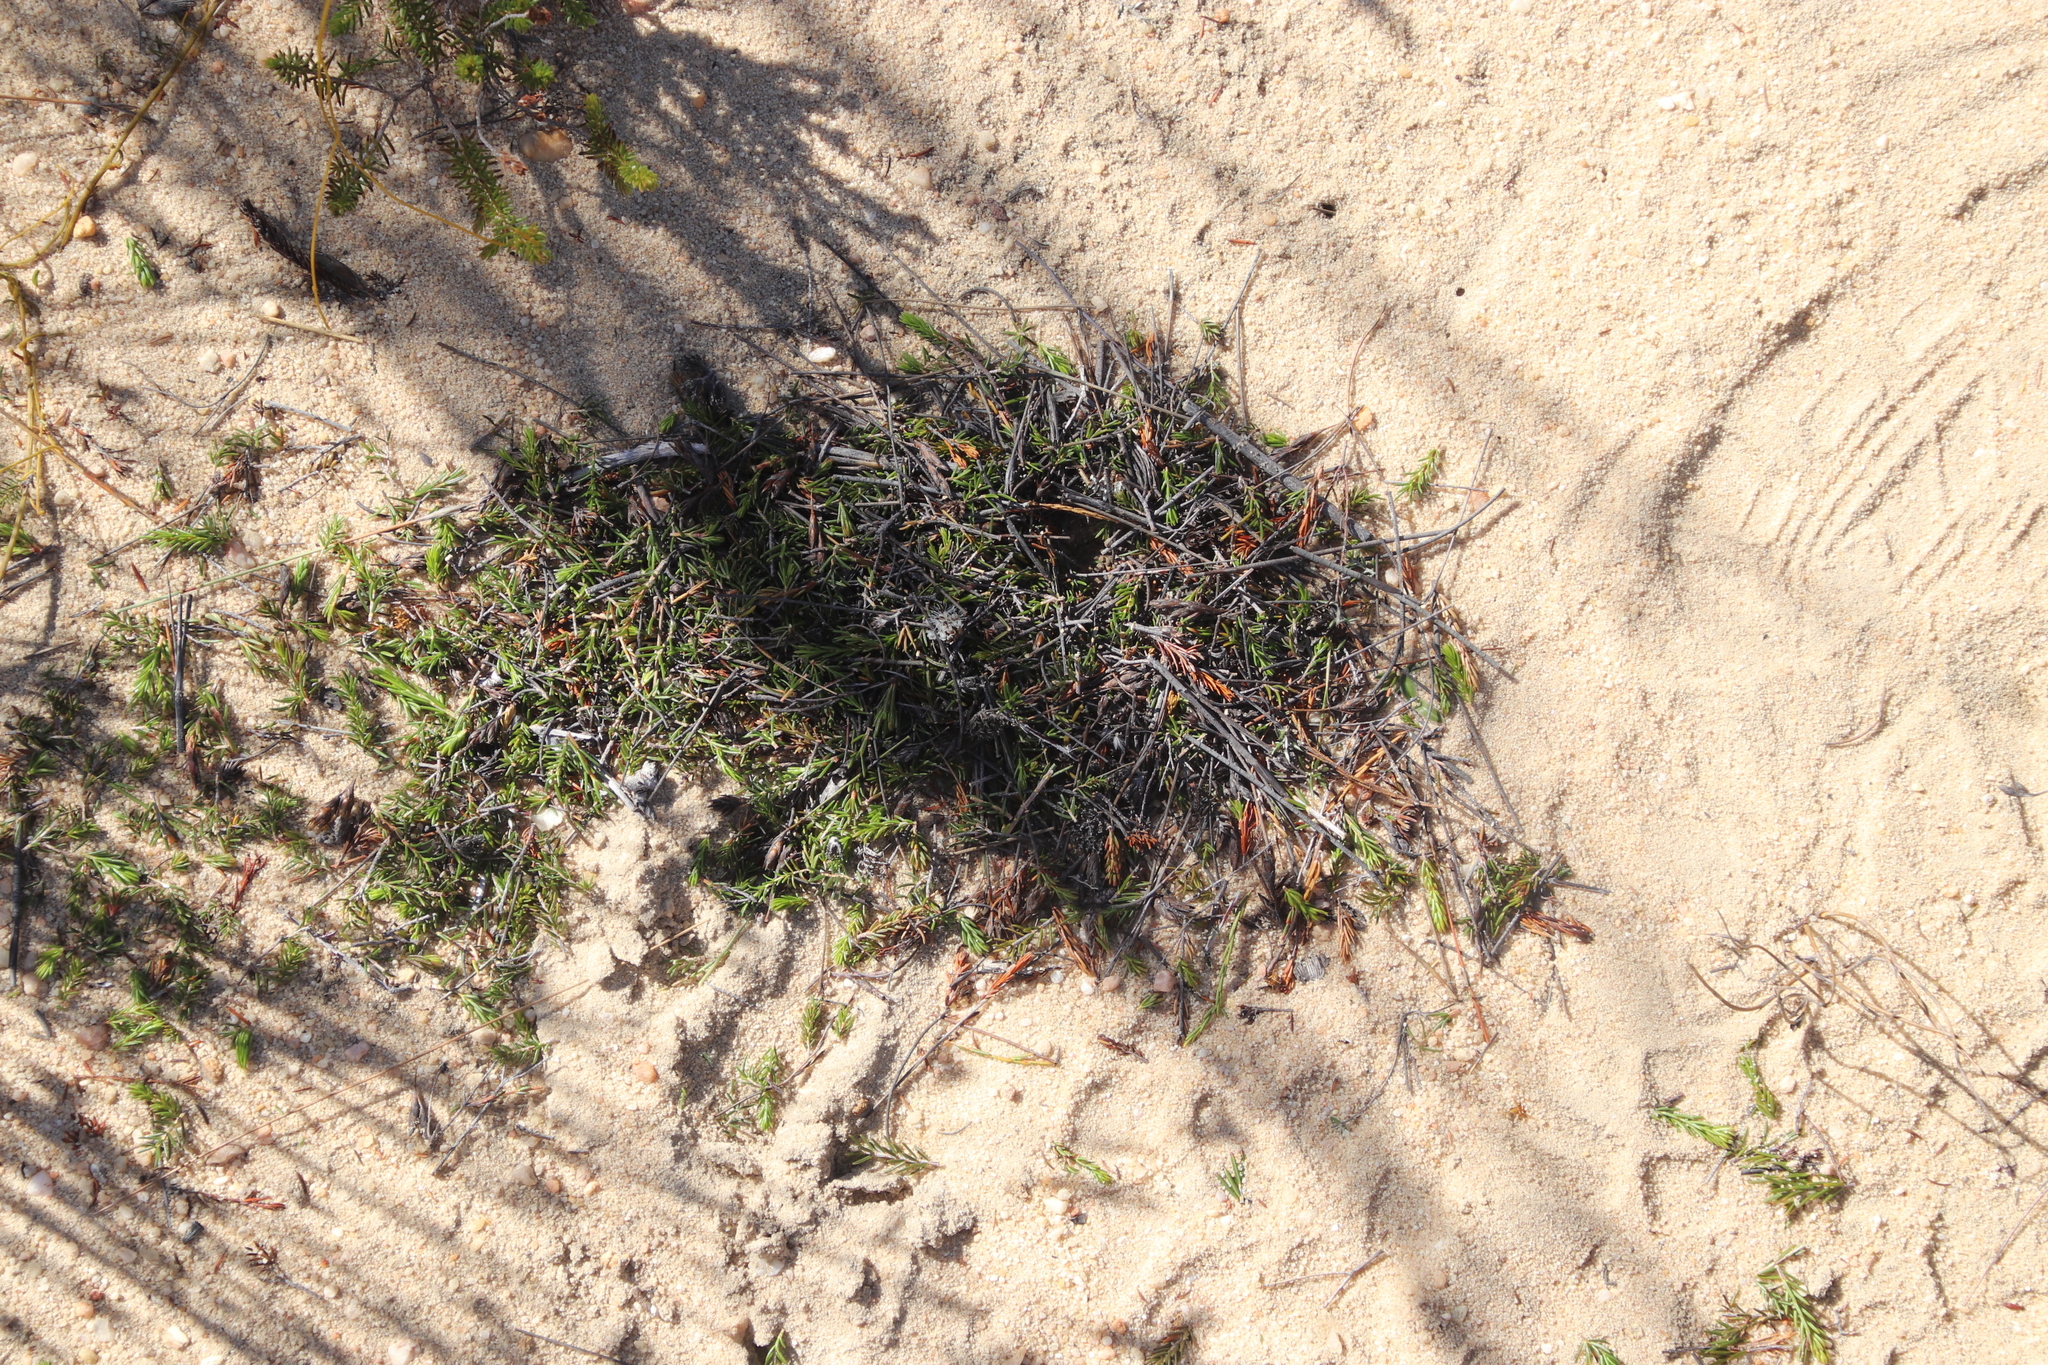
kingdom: Animalia
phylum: Arthropoda
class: Insecta
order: Blattodea
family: Hodotermitidae
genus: Microhodotermes
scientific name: Microhodotermes viator
